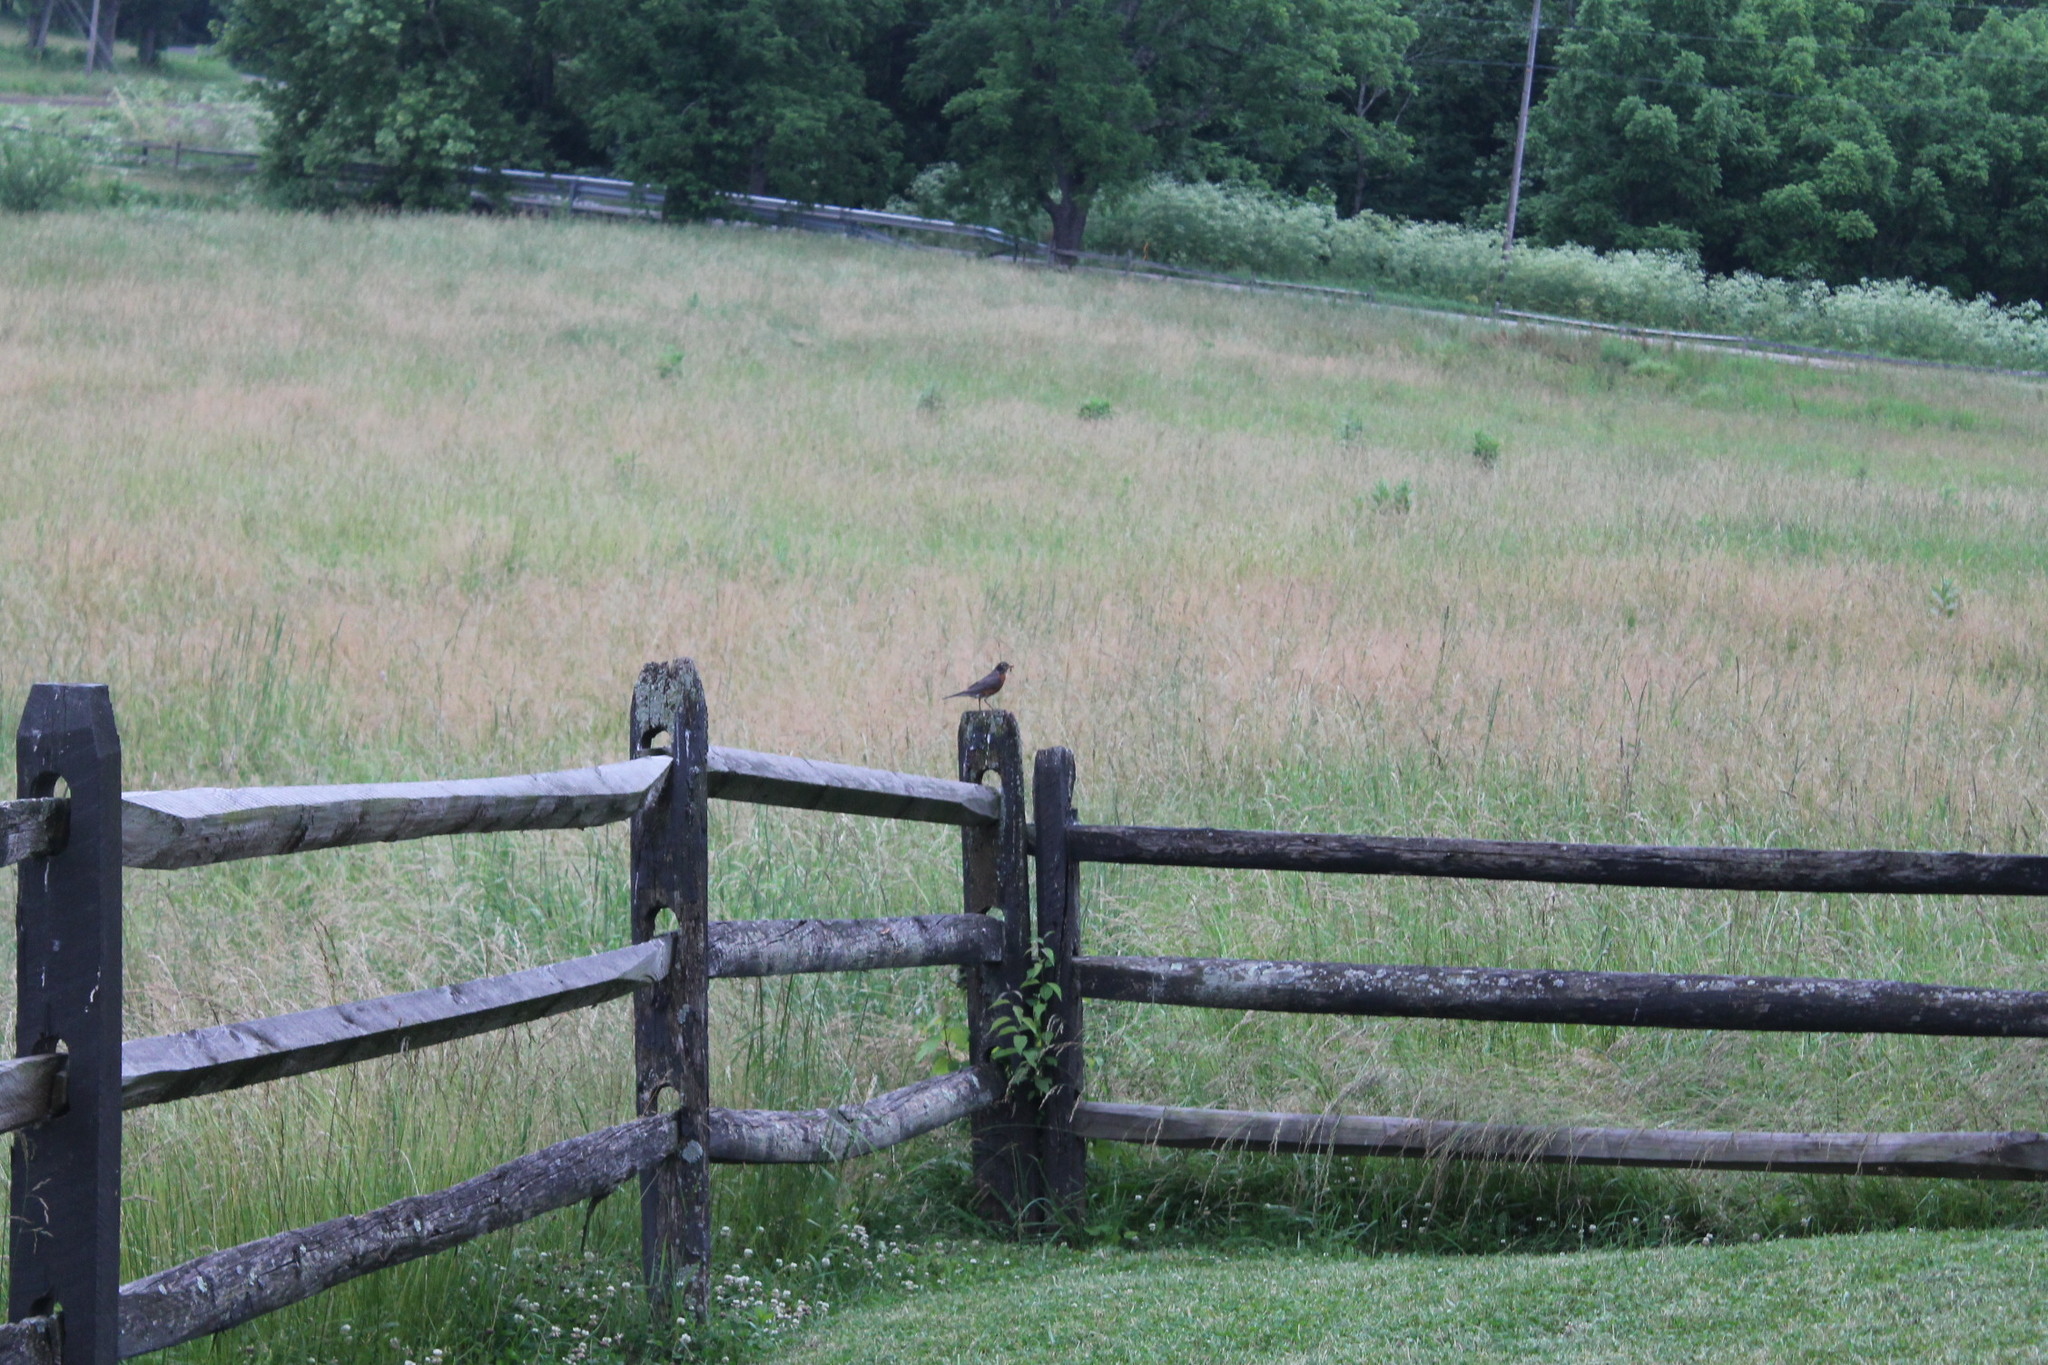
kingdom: Animalia
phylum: Chordata
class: Aves
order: Passeriformes
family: Turdidae
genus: Turdus
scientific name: Turdus migratorius
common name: American robin
